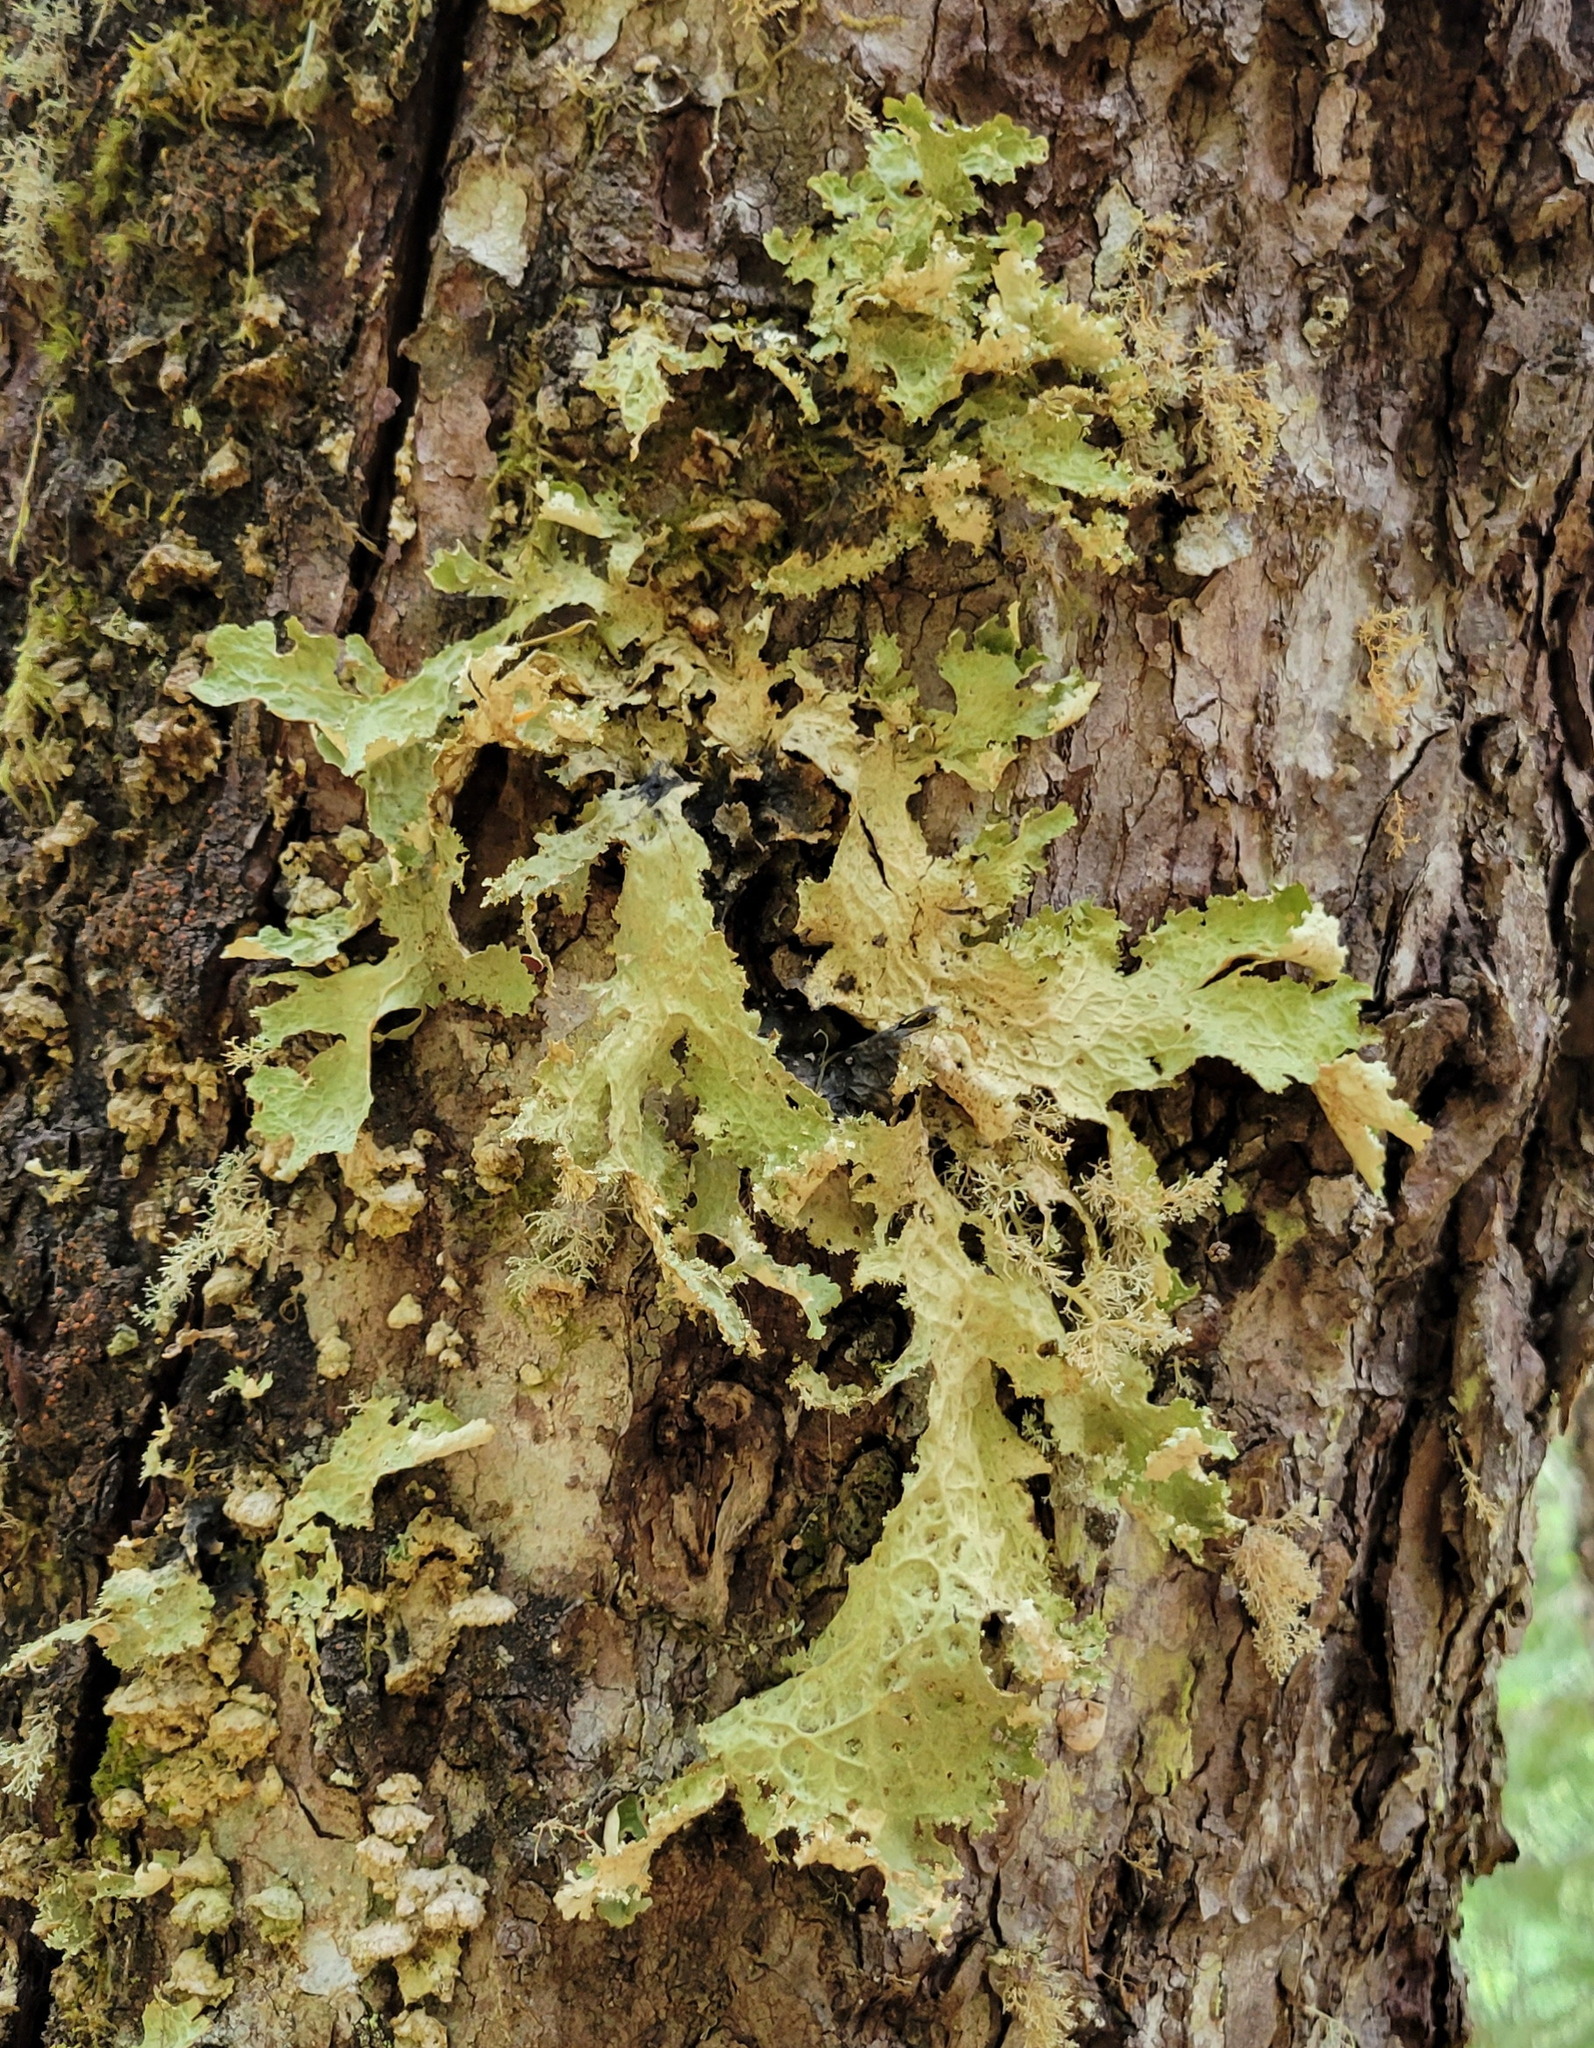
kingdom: Fungi
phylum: Ascomycota
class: Lecanoromycetes
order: Peltigerales
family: Lobariaceae
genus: Lobaria
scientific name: Lobaria oregana
